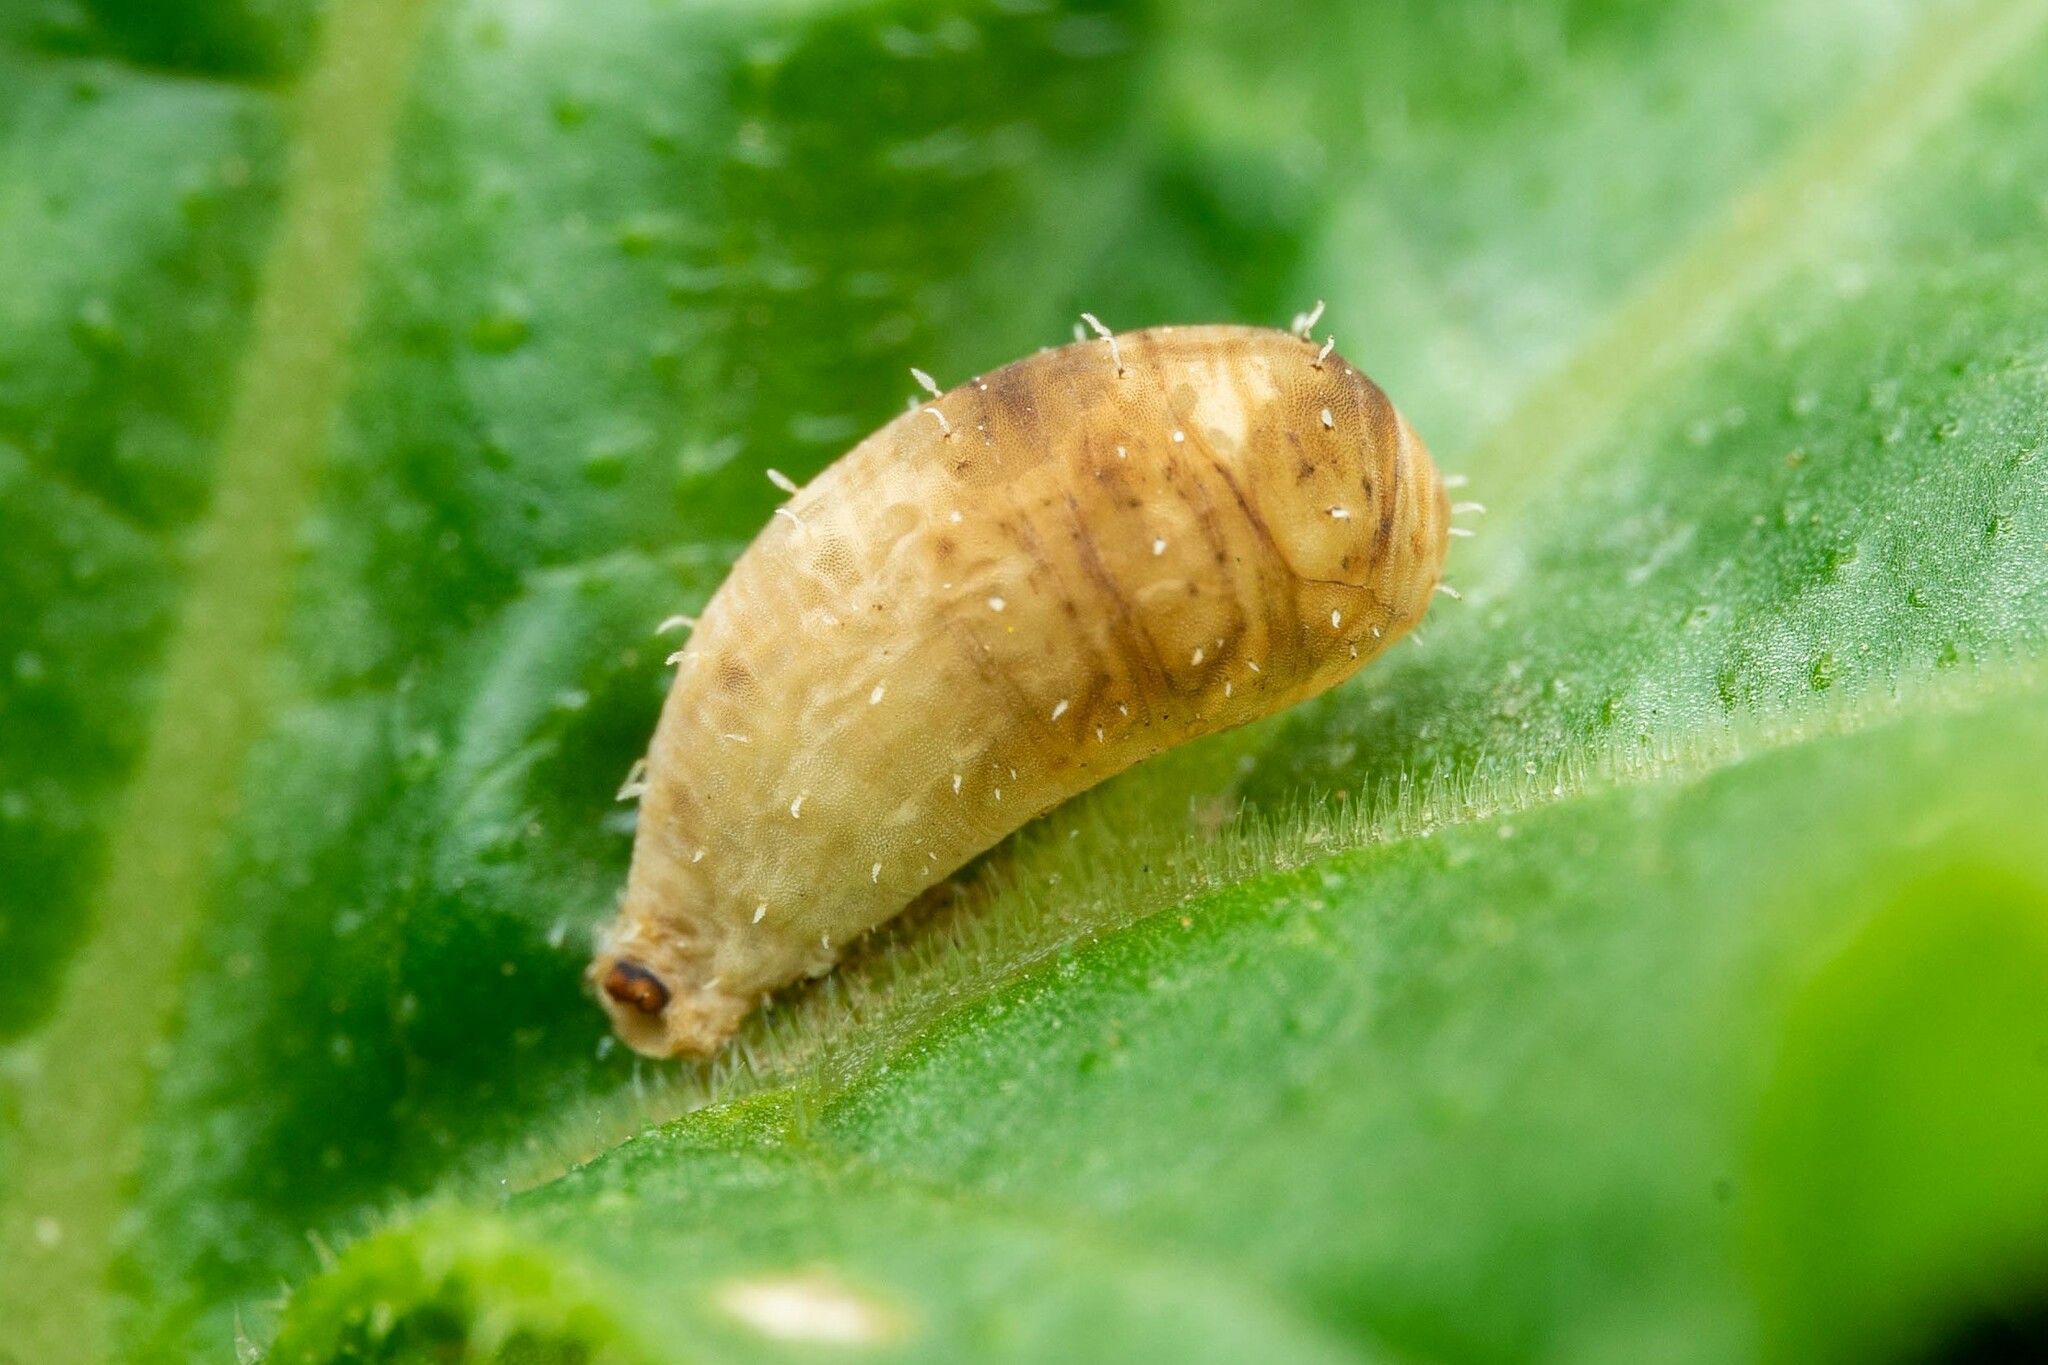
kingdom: Animalia
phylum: Arthropoda
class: Insecta
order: Diptera
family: Syrphidae
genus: Dioprosopa
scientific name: Dioprosopa clavatus
